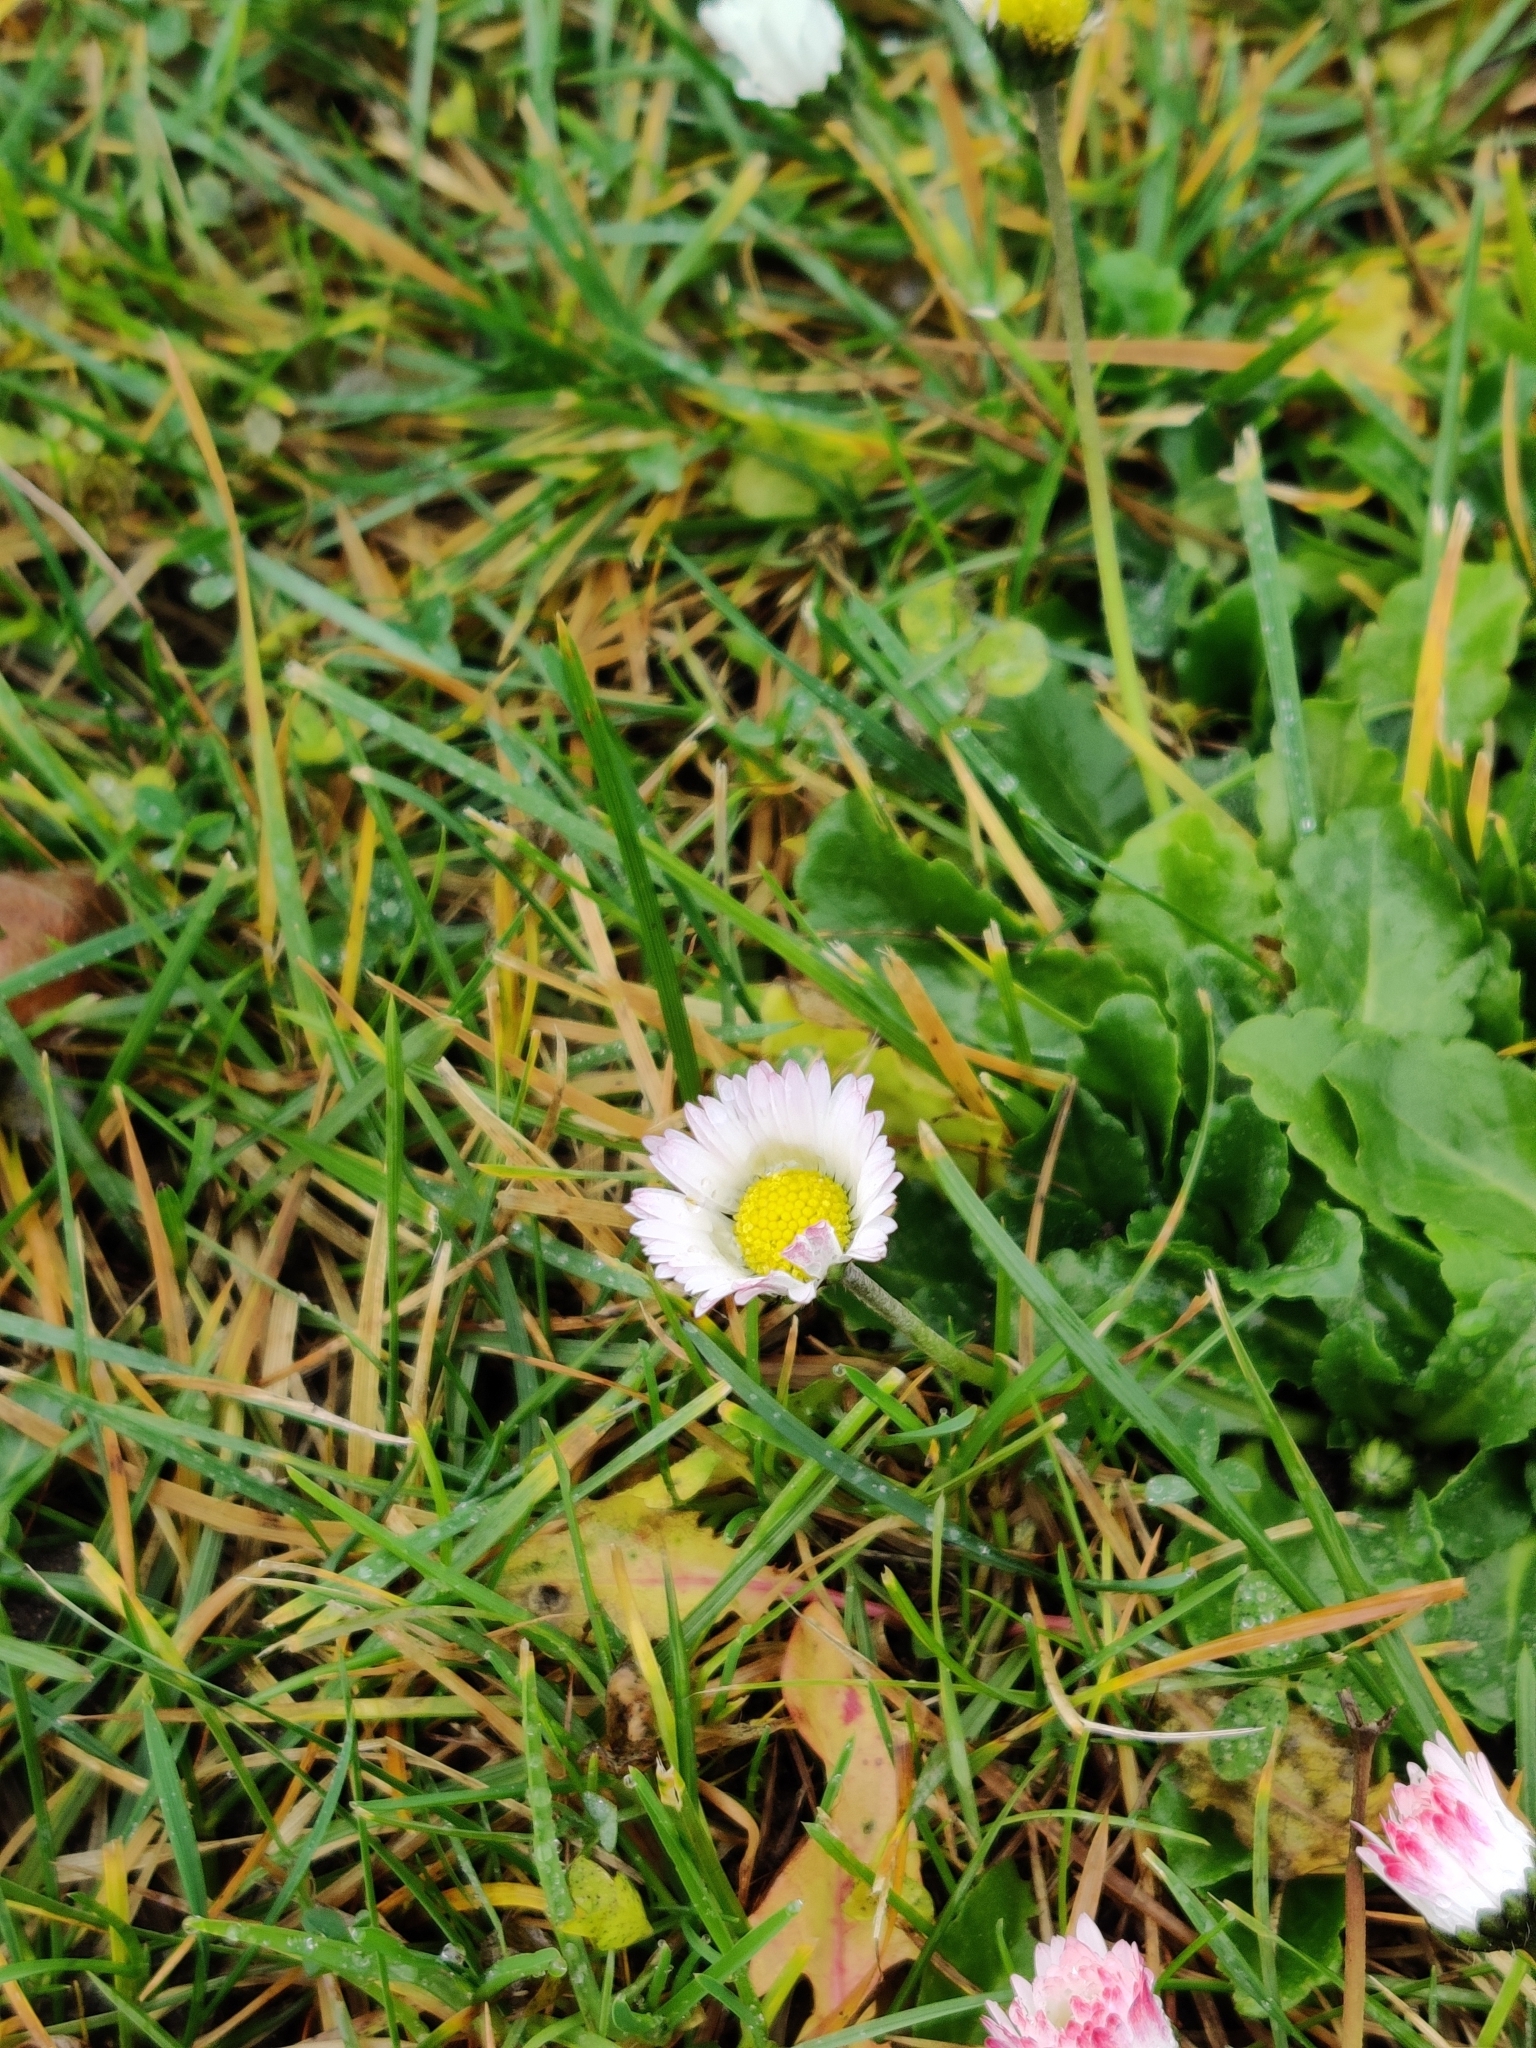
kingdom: Plantae
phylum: Tracheophyta
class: Magnoliopsida
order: Asterales
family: Asteraceae
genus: Bellis
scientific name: Bellis perennis
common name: Lawndaisy
